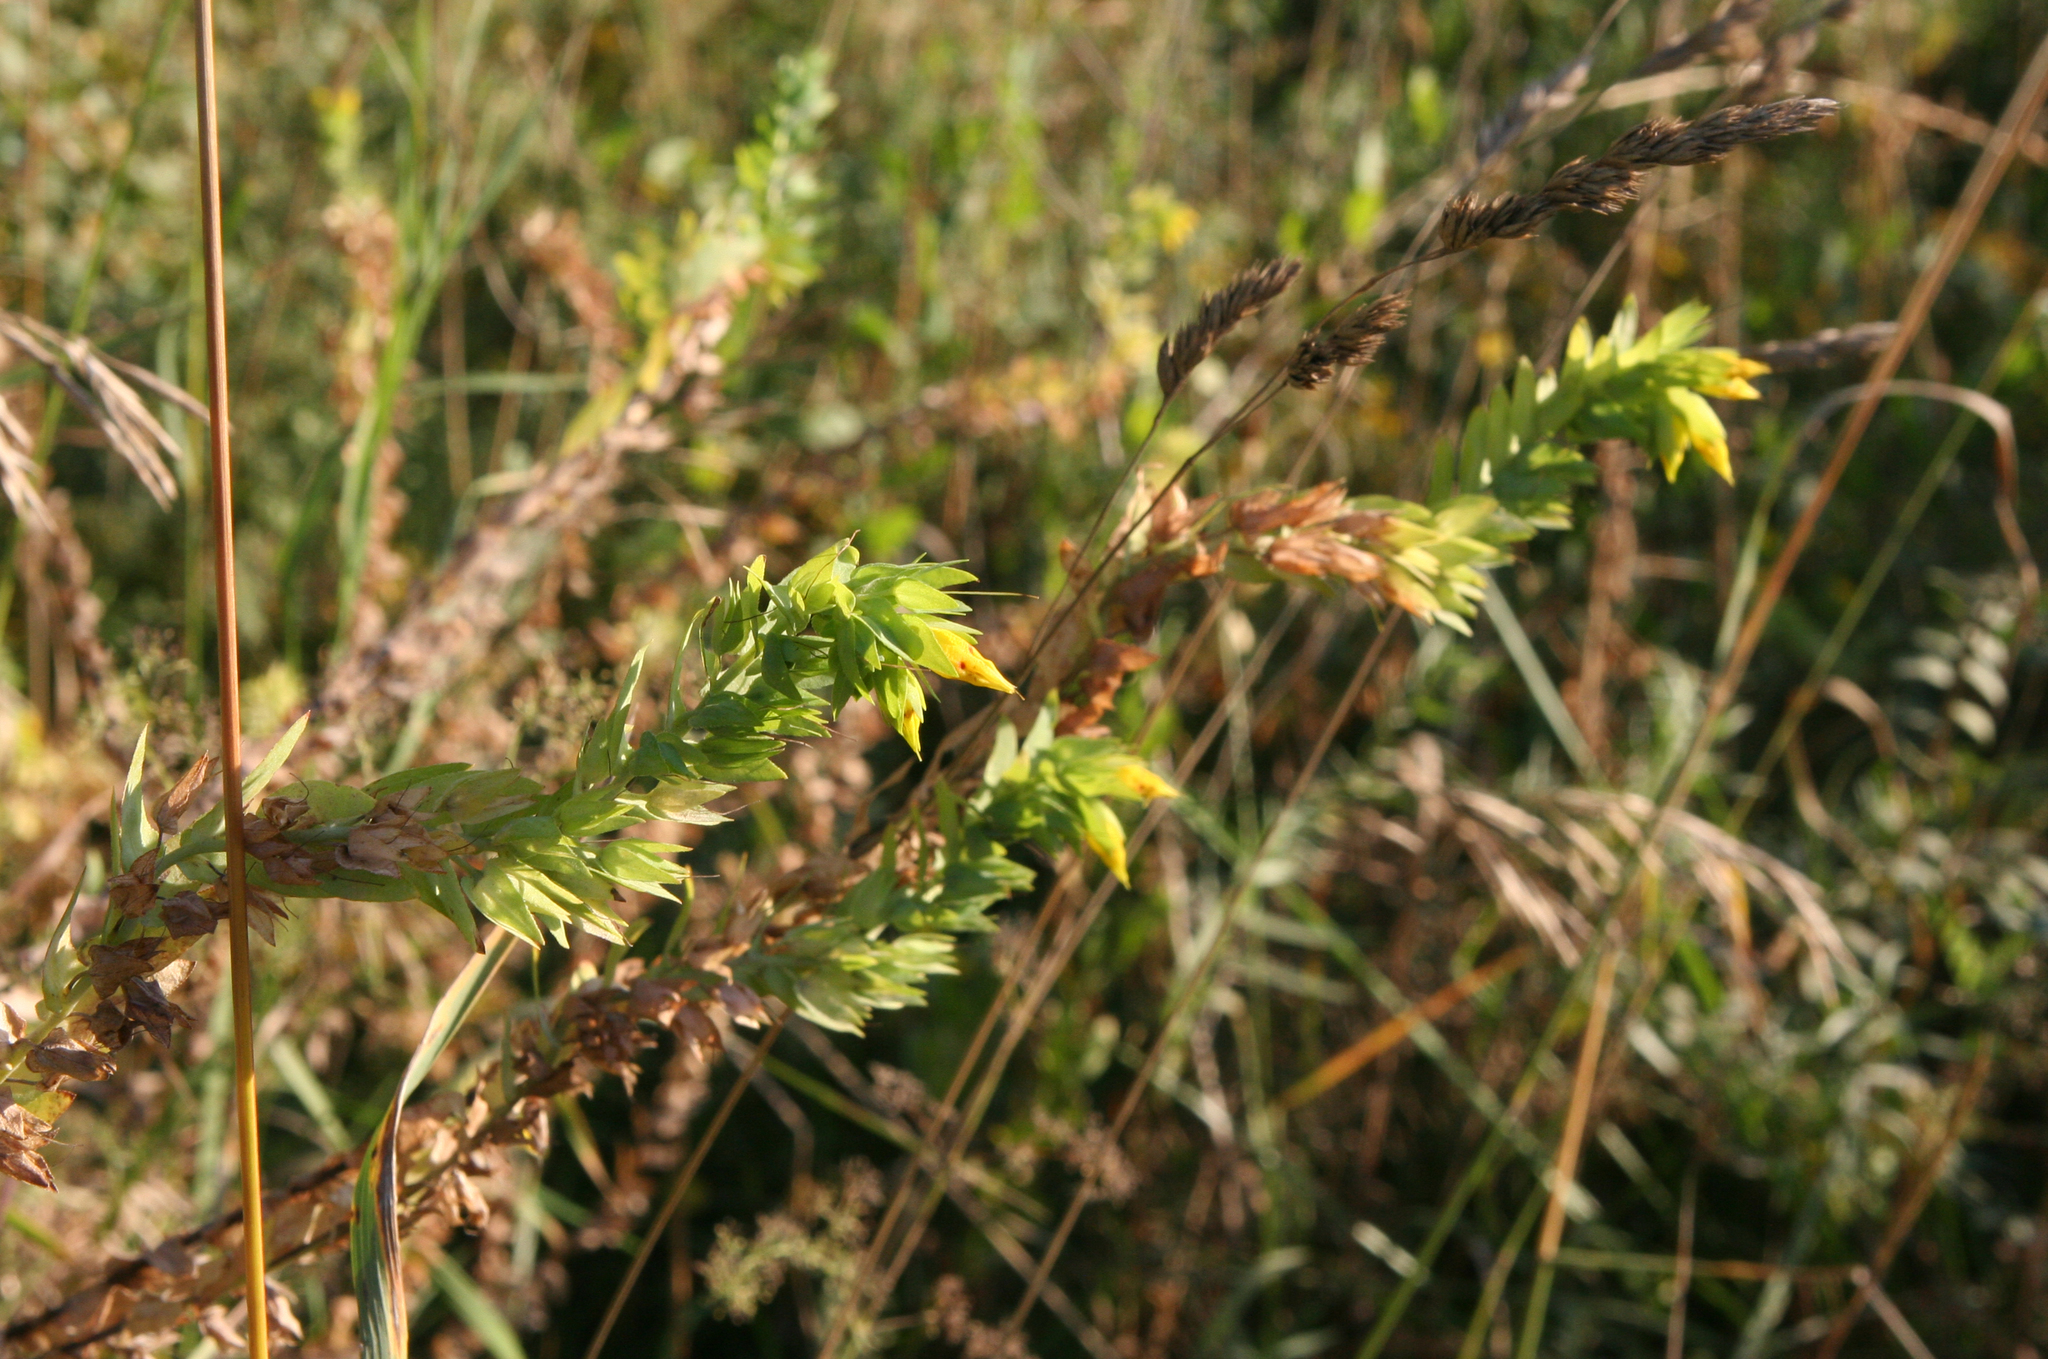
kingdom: Plantae
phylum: Tracheophyta
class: Magnoliopsida
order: Boraginales
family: Boraginaceae
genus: Cerinthe
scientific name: Cerinthe minor
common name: Lesser honeywort
